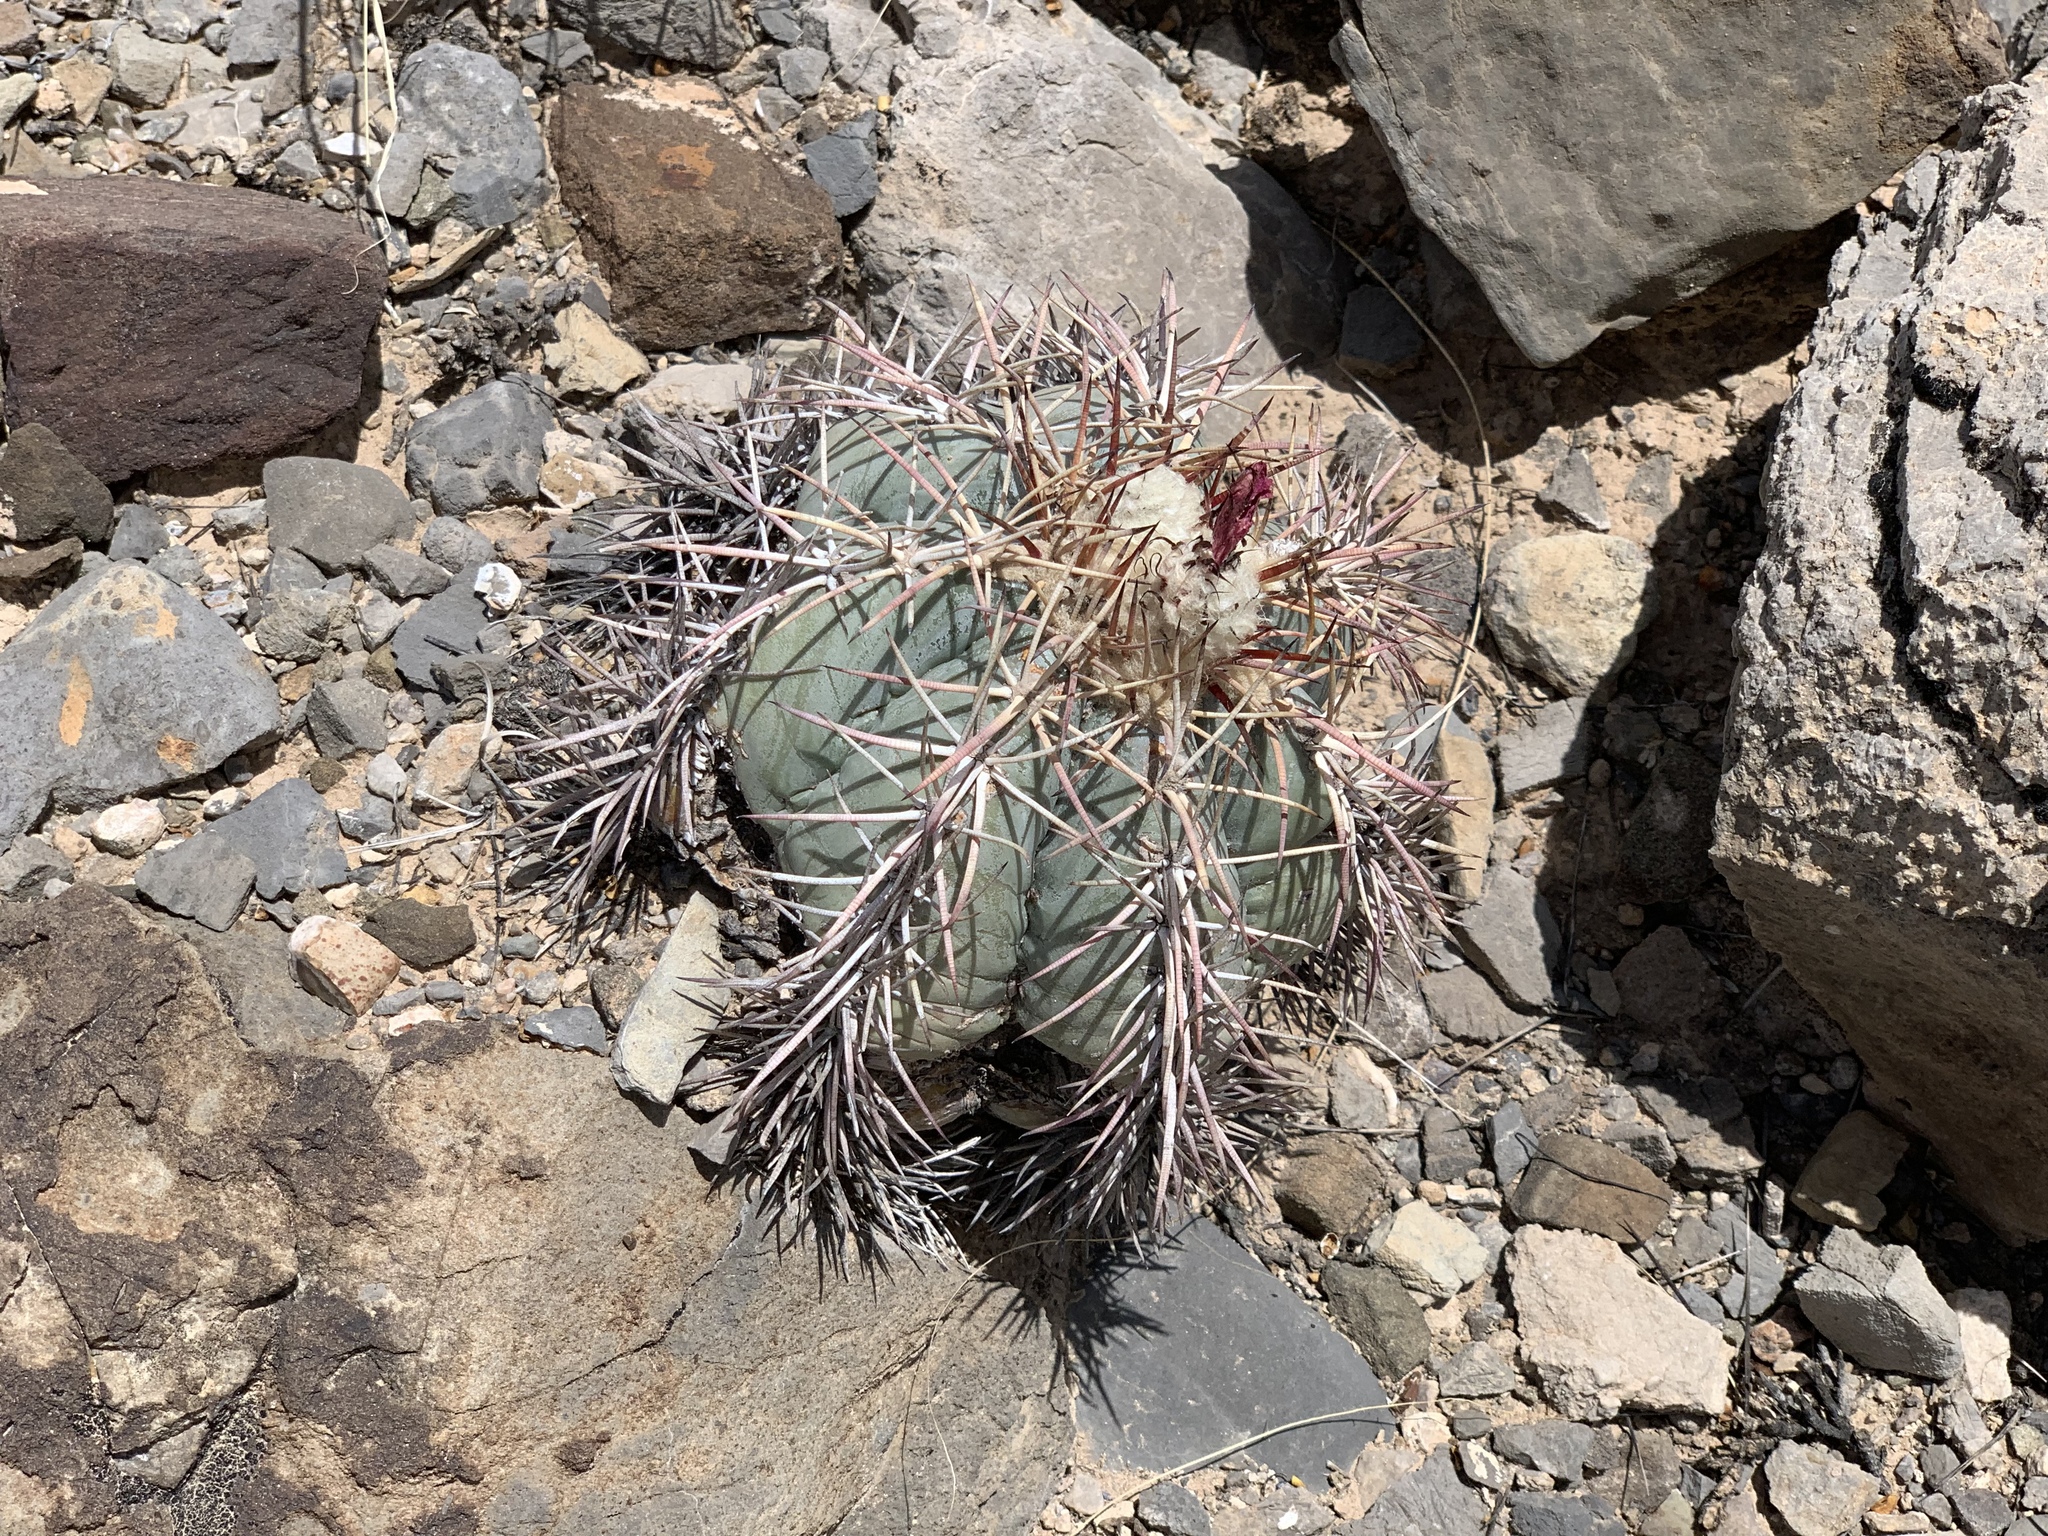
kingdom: Plantae
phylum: Tracheophyta
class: Magnoliopsida
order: Caryophyllales
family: Cactaceae
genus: Echinocactus
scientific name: Echinocactus horizonthalonius
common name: Devilshead
